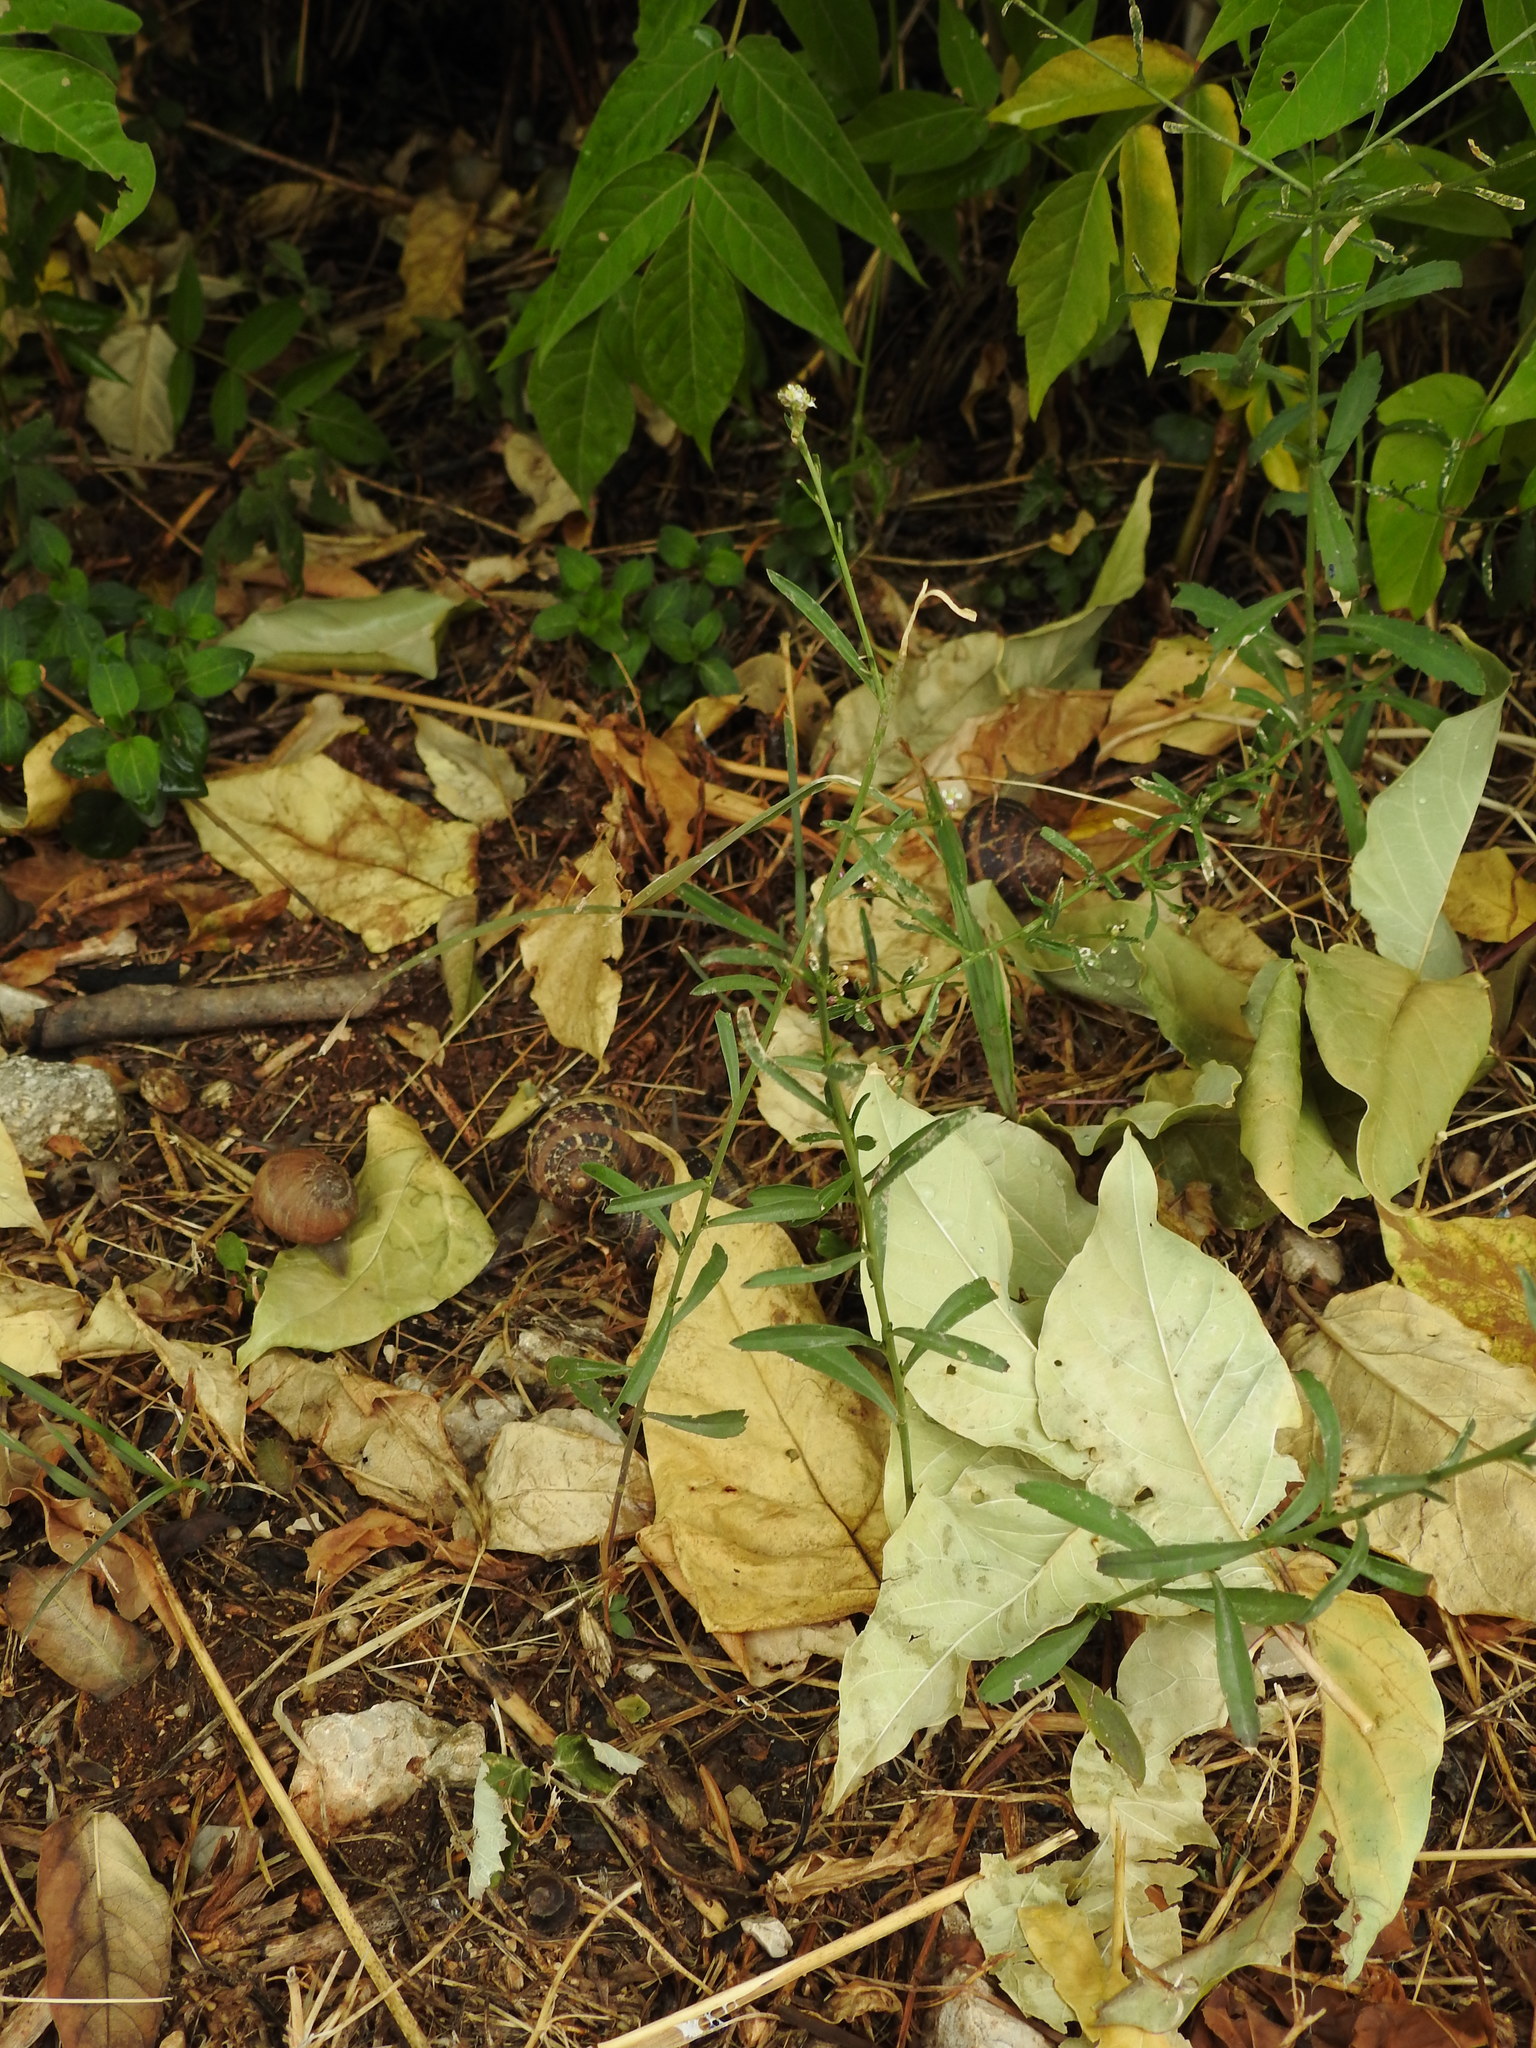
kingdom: Plantae
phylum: Tracheophyta
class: Magnoliopsida
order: Brassicales
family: Brassicaceae
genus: Lepidium
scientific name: Lepidium graminifolium
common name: Tall pepperwort
